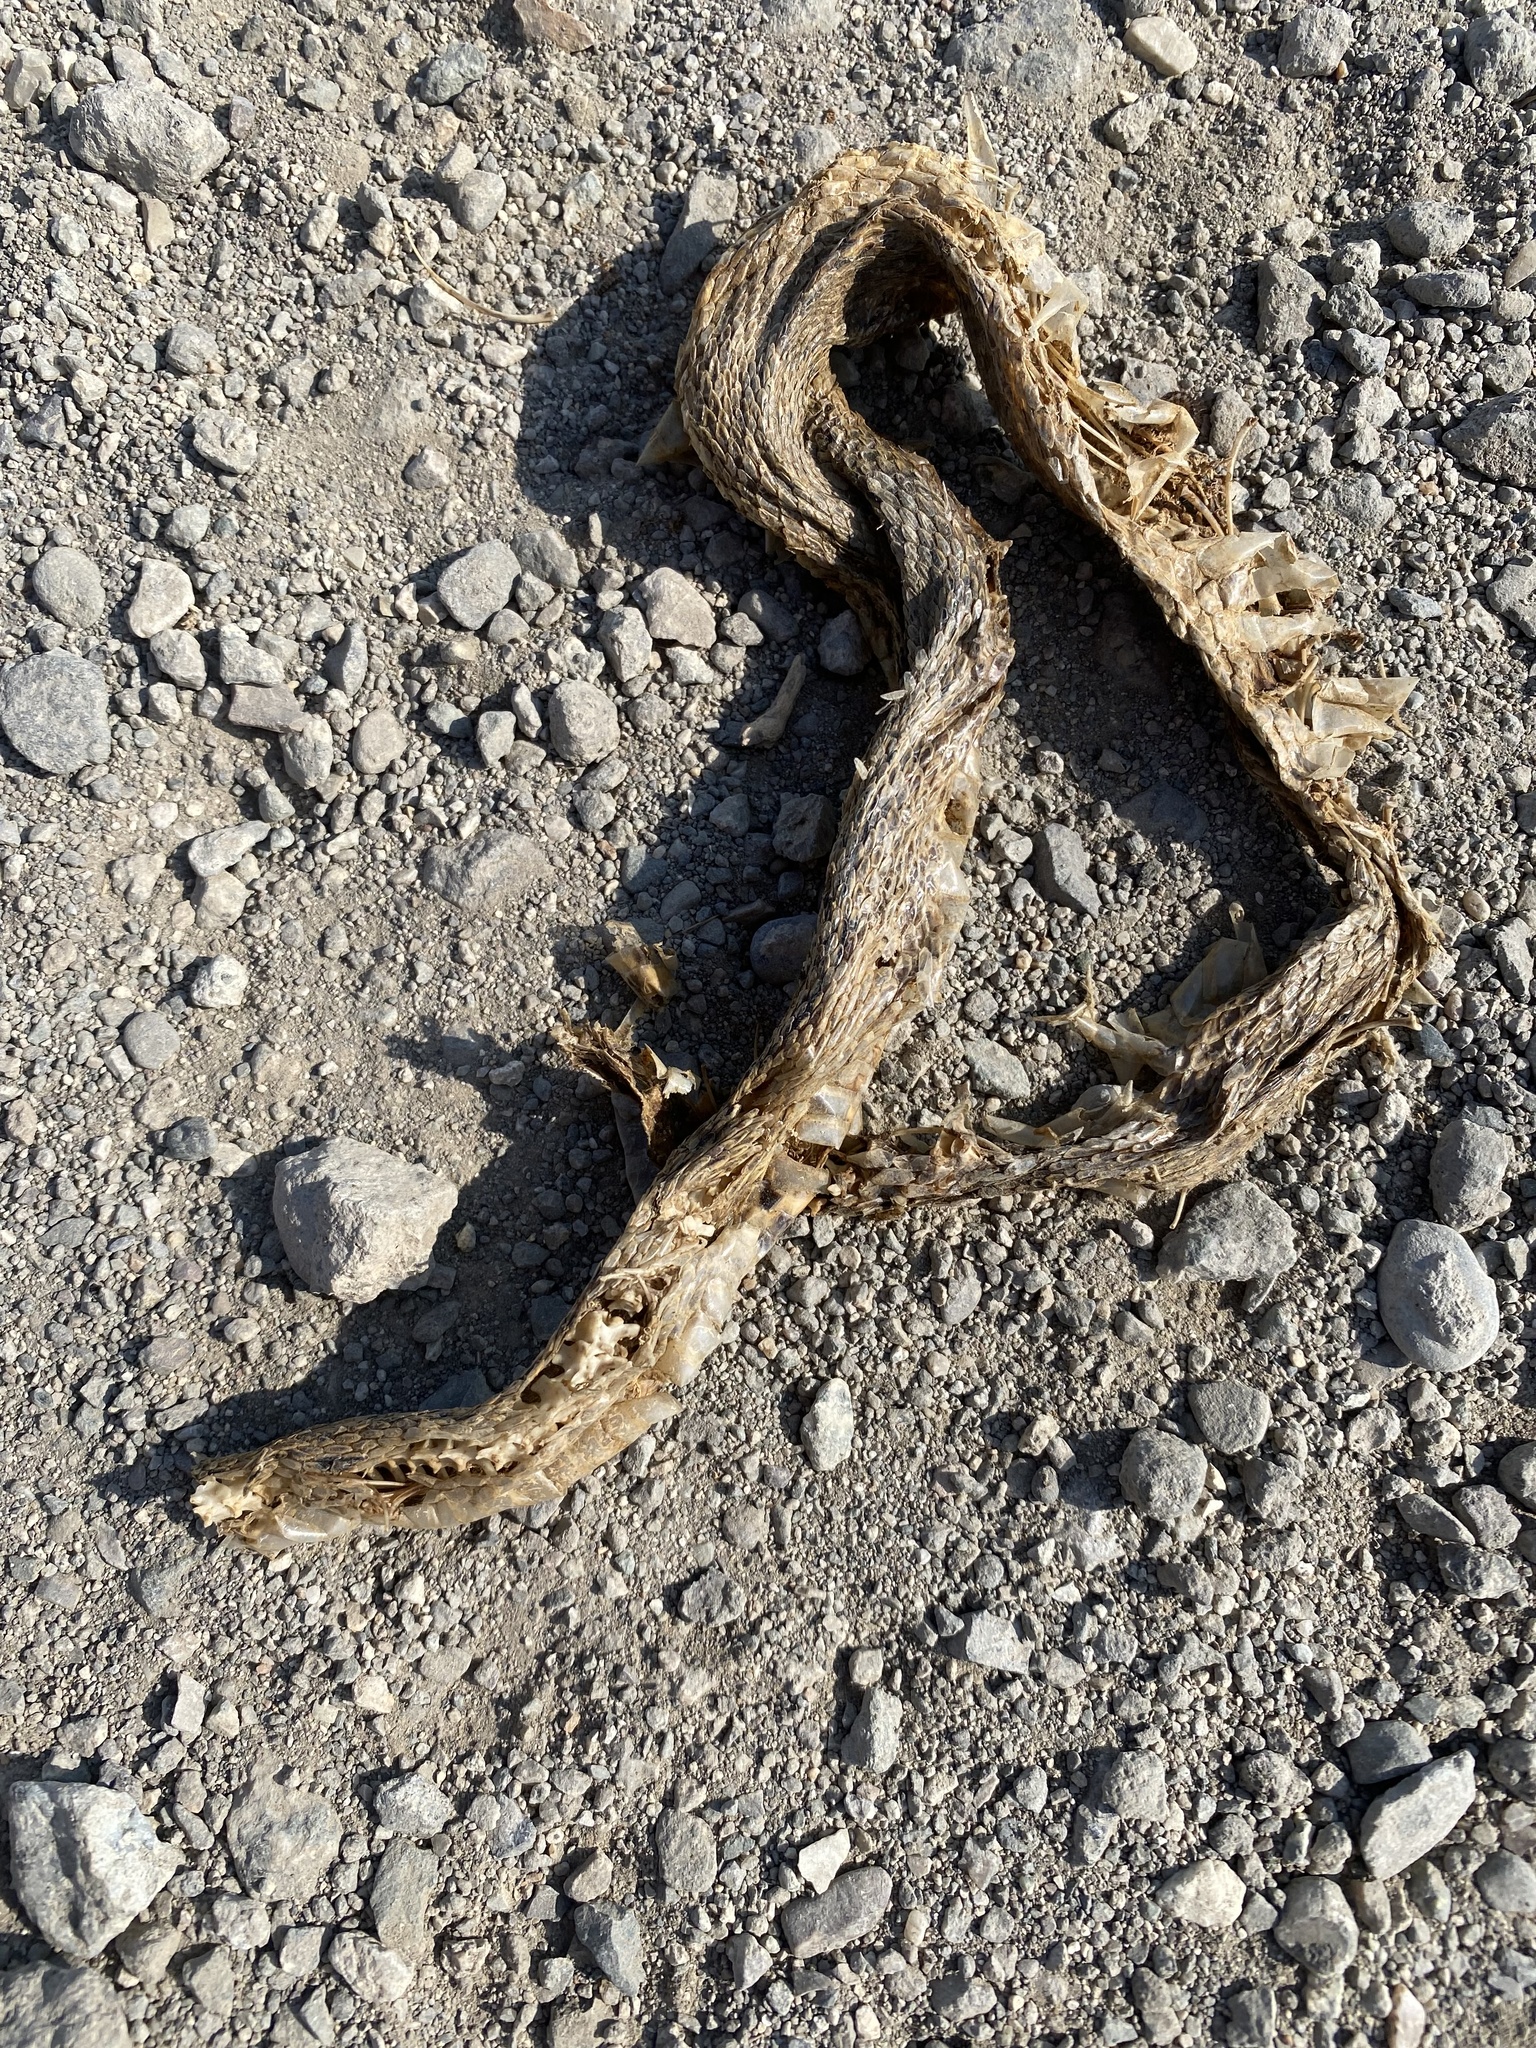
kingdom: Animalia
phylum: Chordata
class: Squamata
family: Colubridae
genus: Pituophis
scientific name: Pituophis catenifer
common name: Gopher snake
